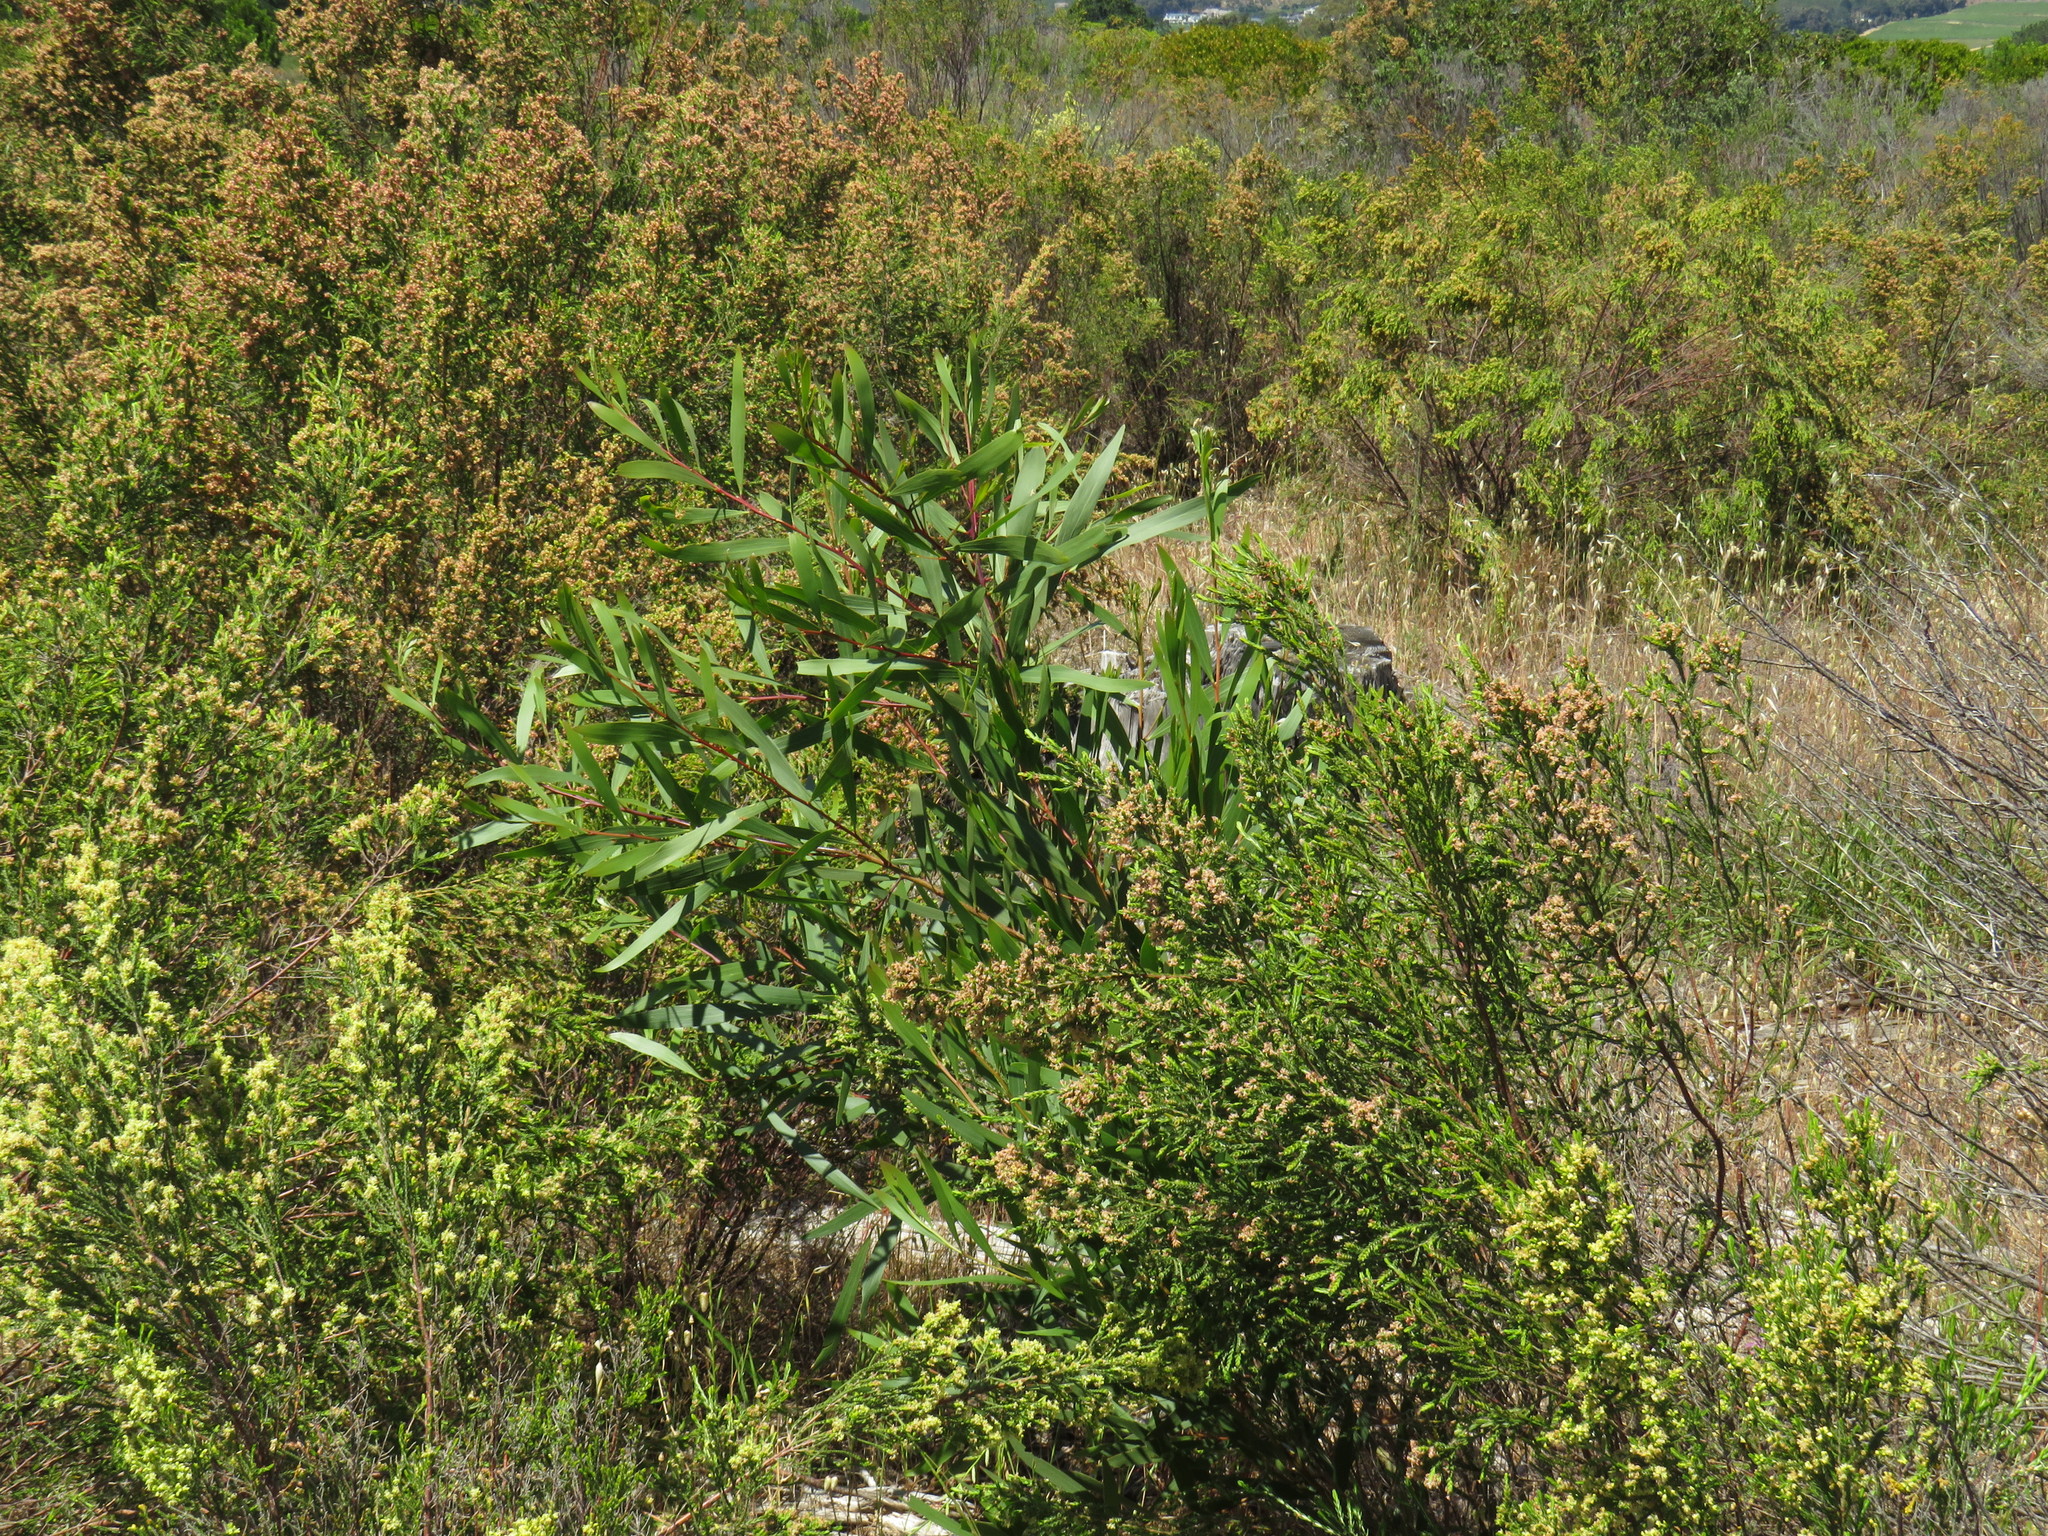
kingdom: Plantae
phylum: Tracheophyta
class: Magnoliopsida
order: Fabales
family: Fabaceae
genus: Acacia
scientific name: Acacia longifolia
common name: Sydney golden wattle
